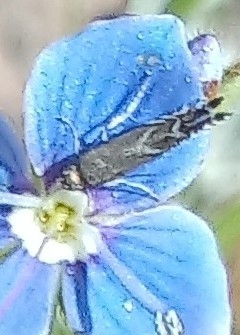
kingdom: Animalia
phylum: Arthropoda
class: Insecta
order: Lepidoptera
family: Glyphipterigidae
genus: Glyphipterix
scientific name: Glyphipterix simpliciella
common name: Cocksfoot moth
